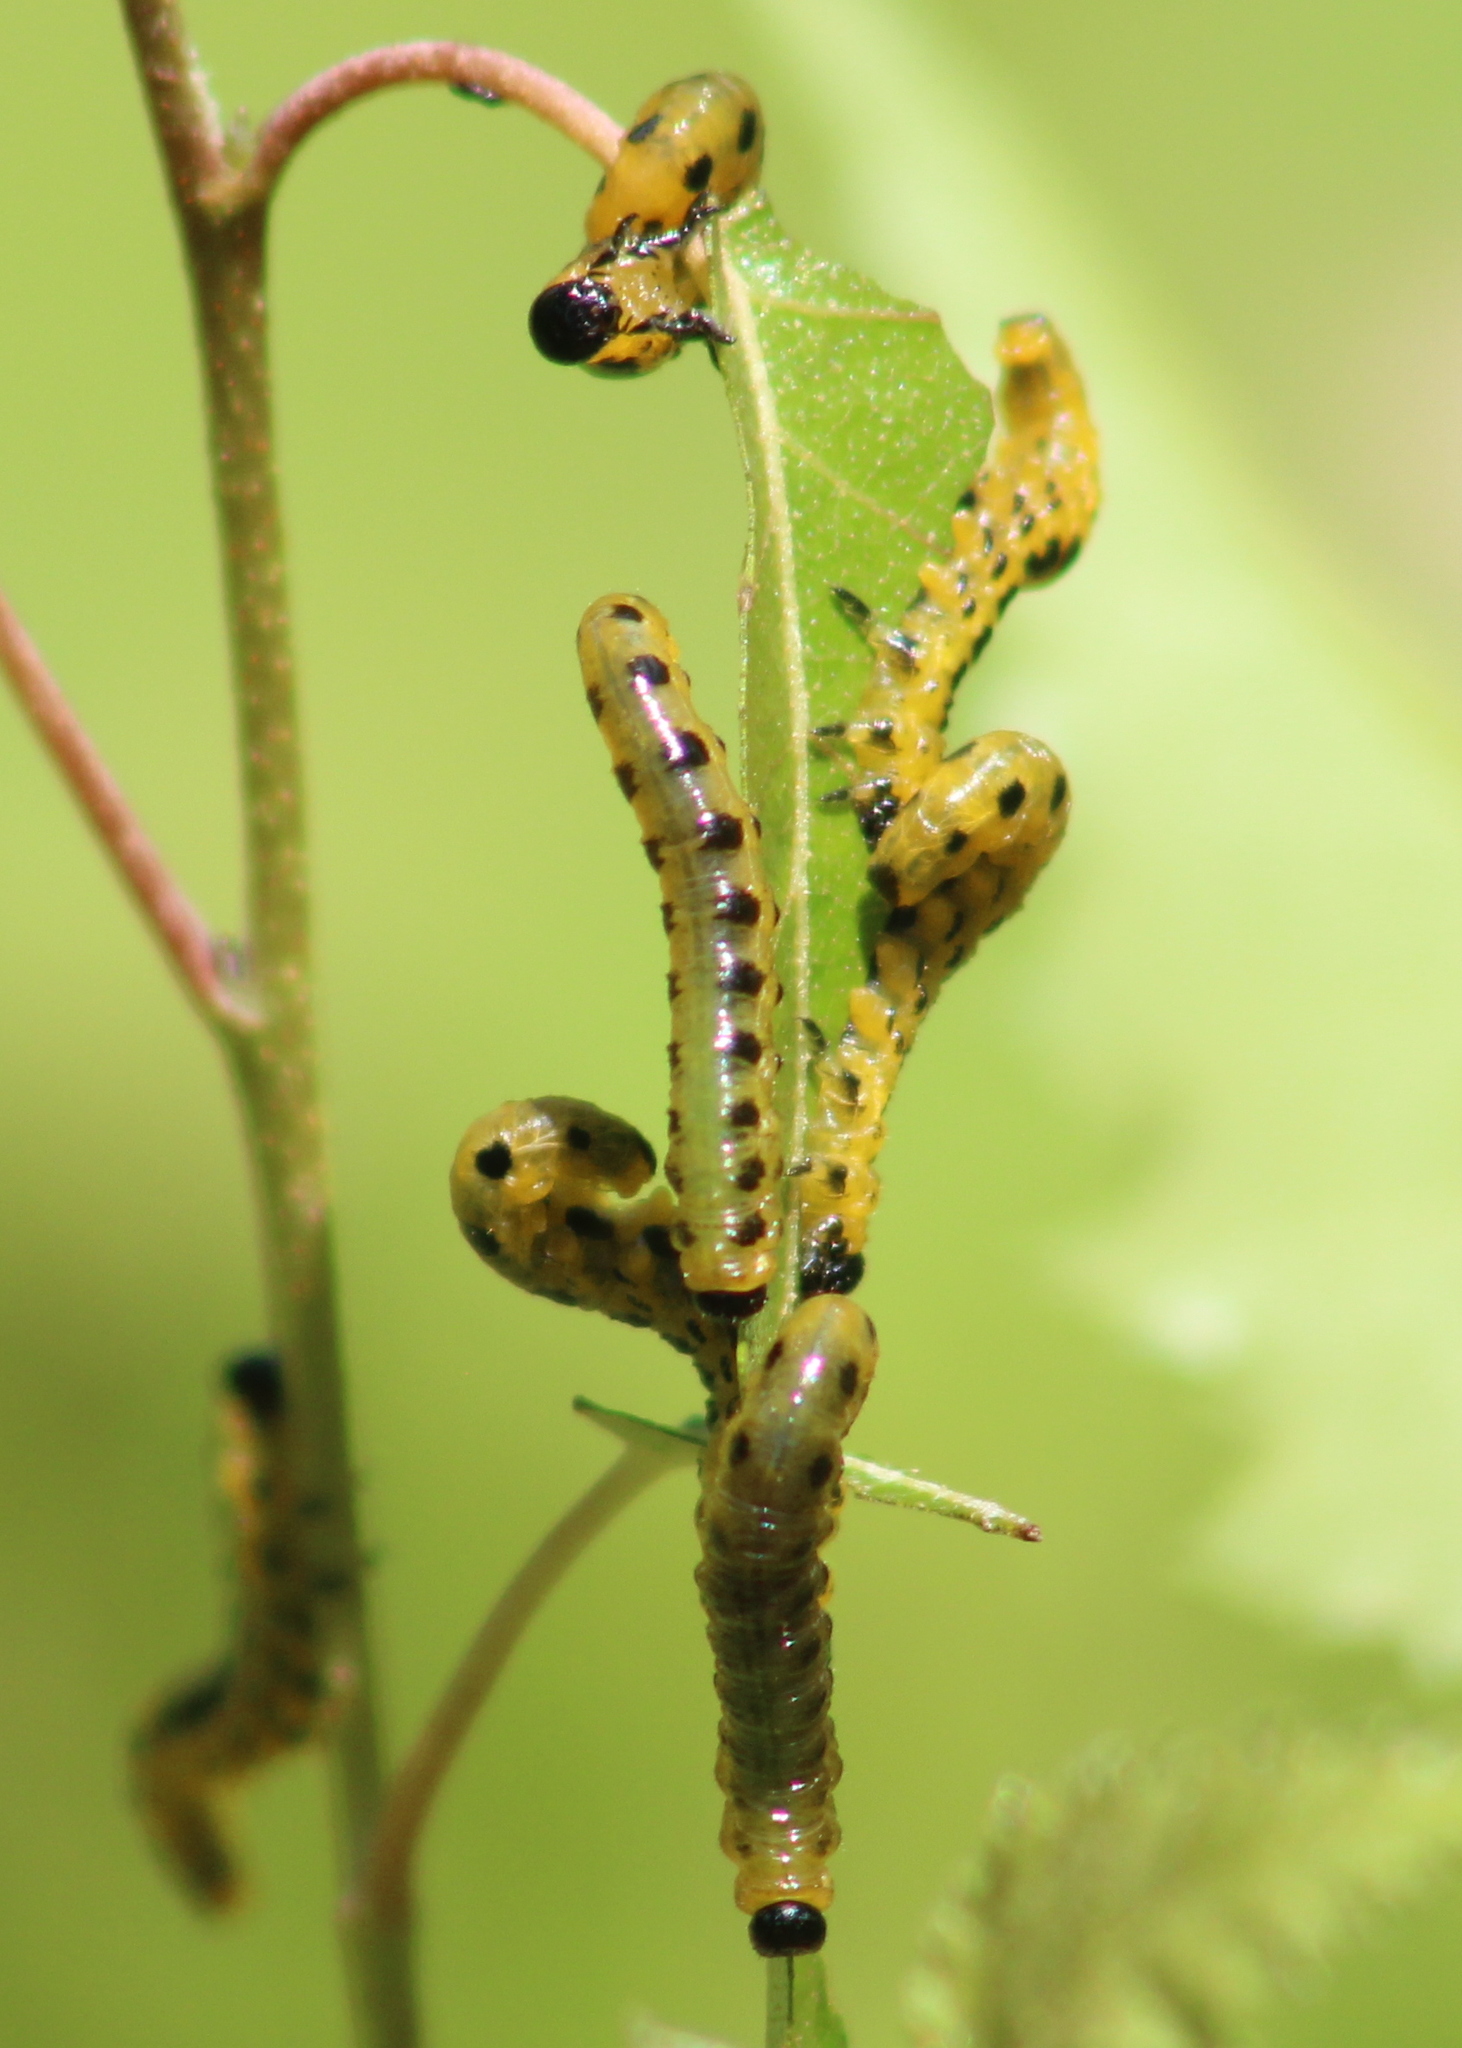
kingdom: Animalia
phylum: Arthropoda
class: Insecta
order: Hymenoptera
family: Tenthredinidae
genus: Nematus
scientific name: Nematus
